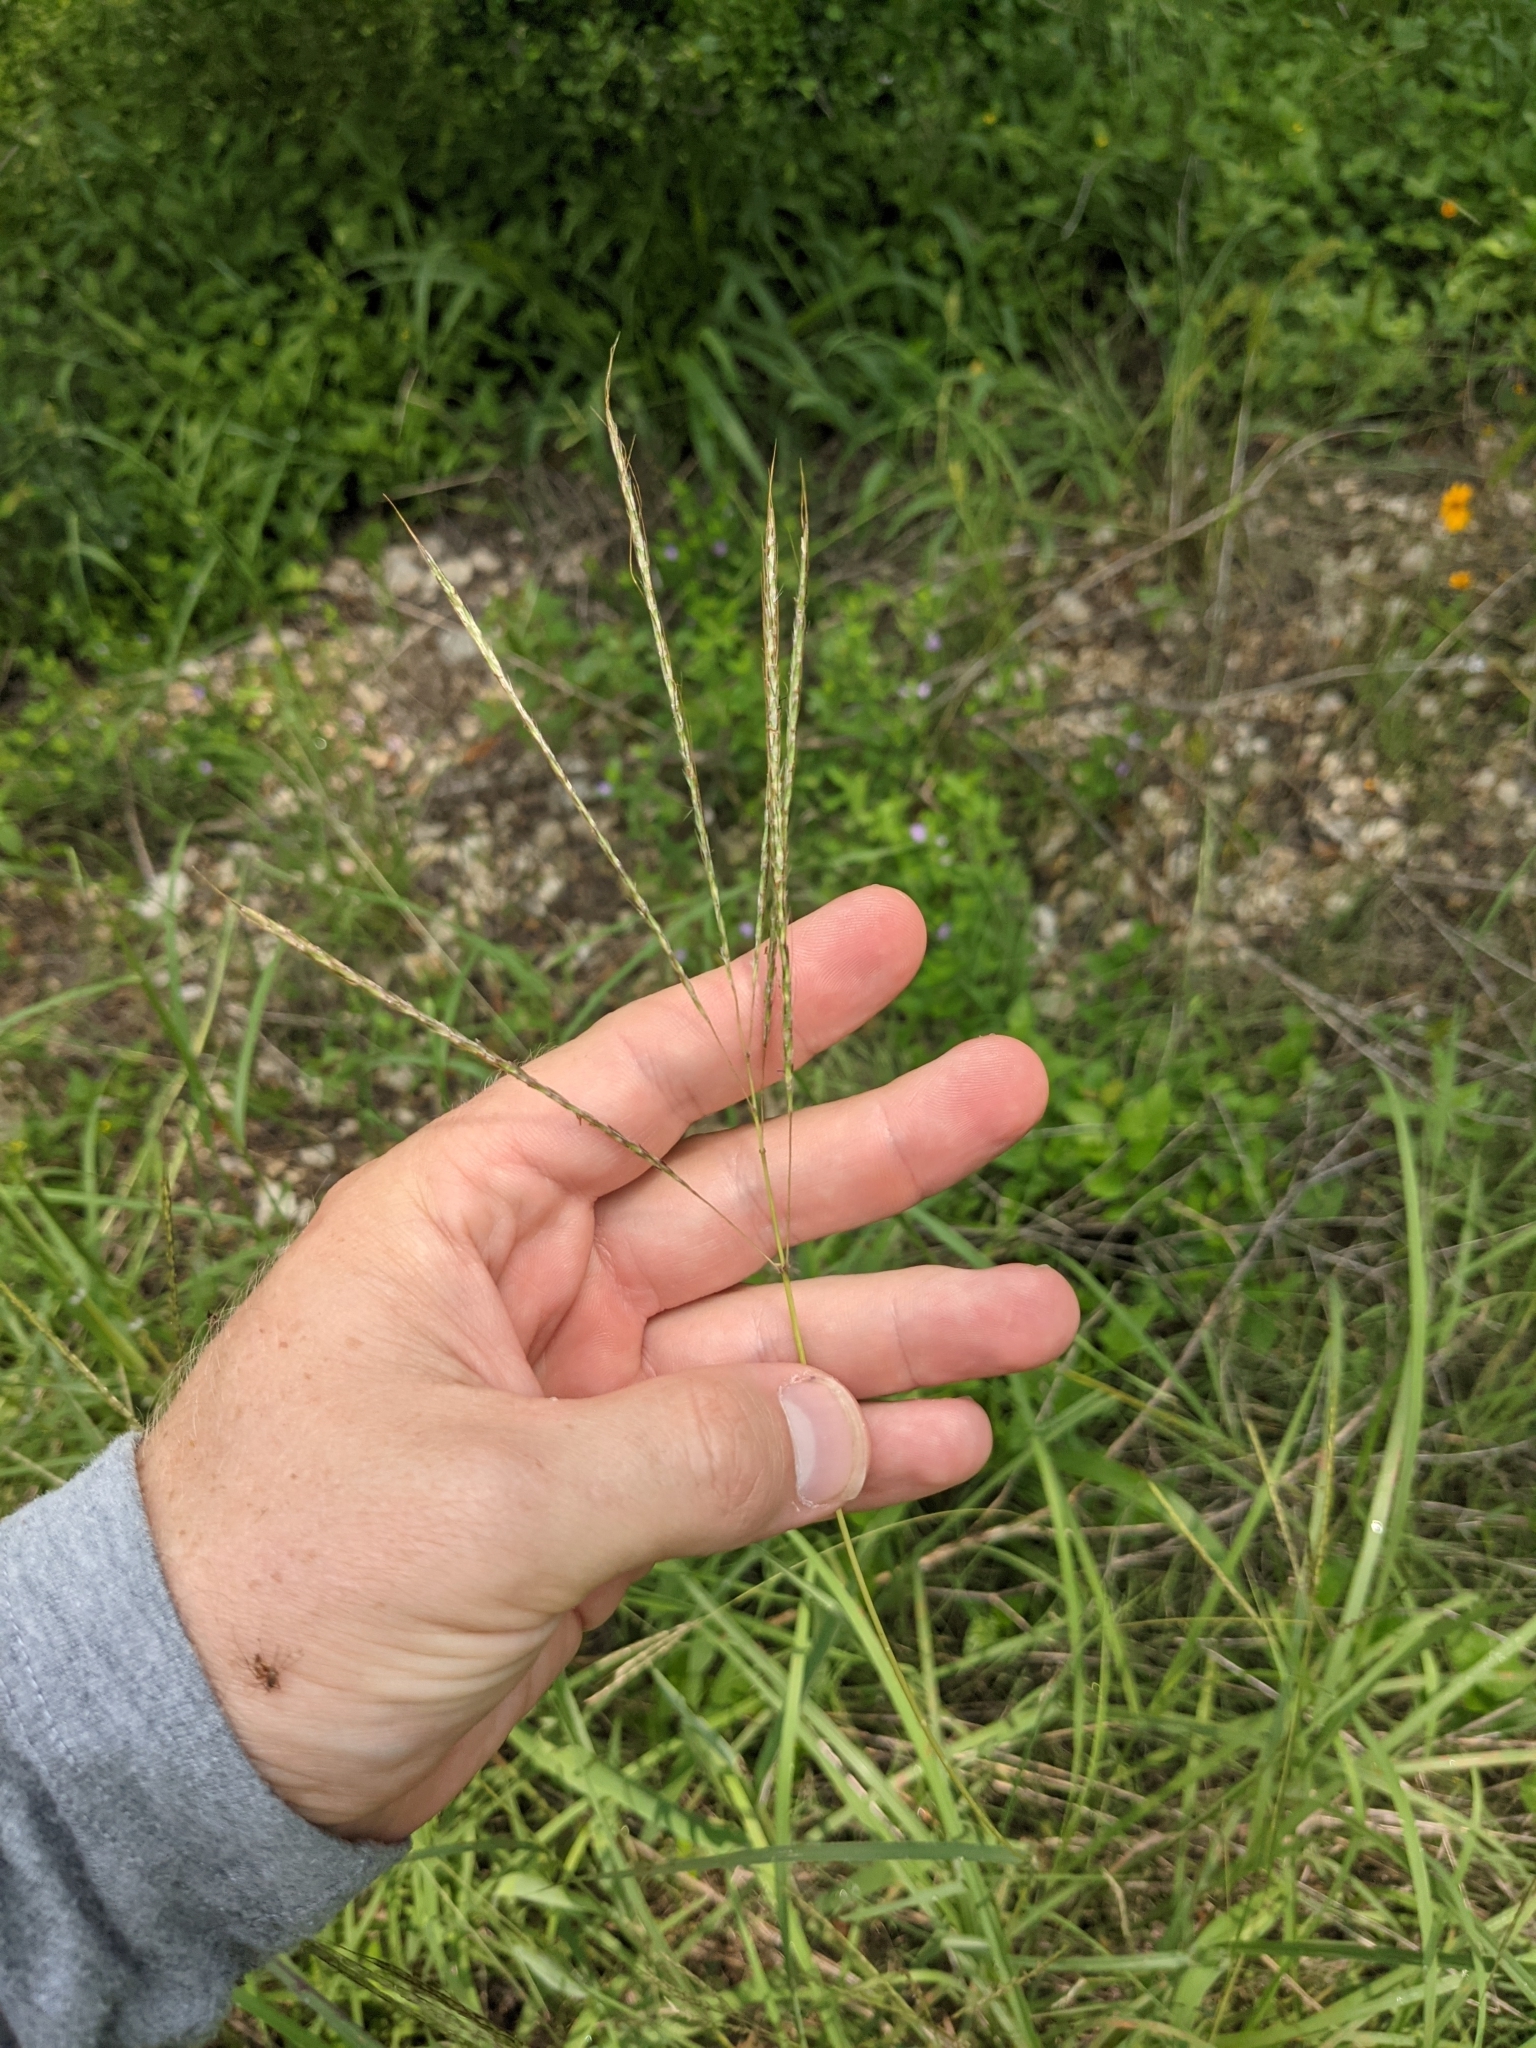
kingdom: Plantae
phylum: Tracheophyta
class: Liliopsida
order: Poales
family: Poaceae
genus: Bothriochloa
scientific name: Bothriochloa ischaemum
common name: Yellow bluestem
